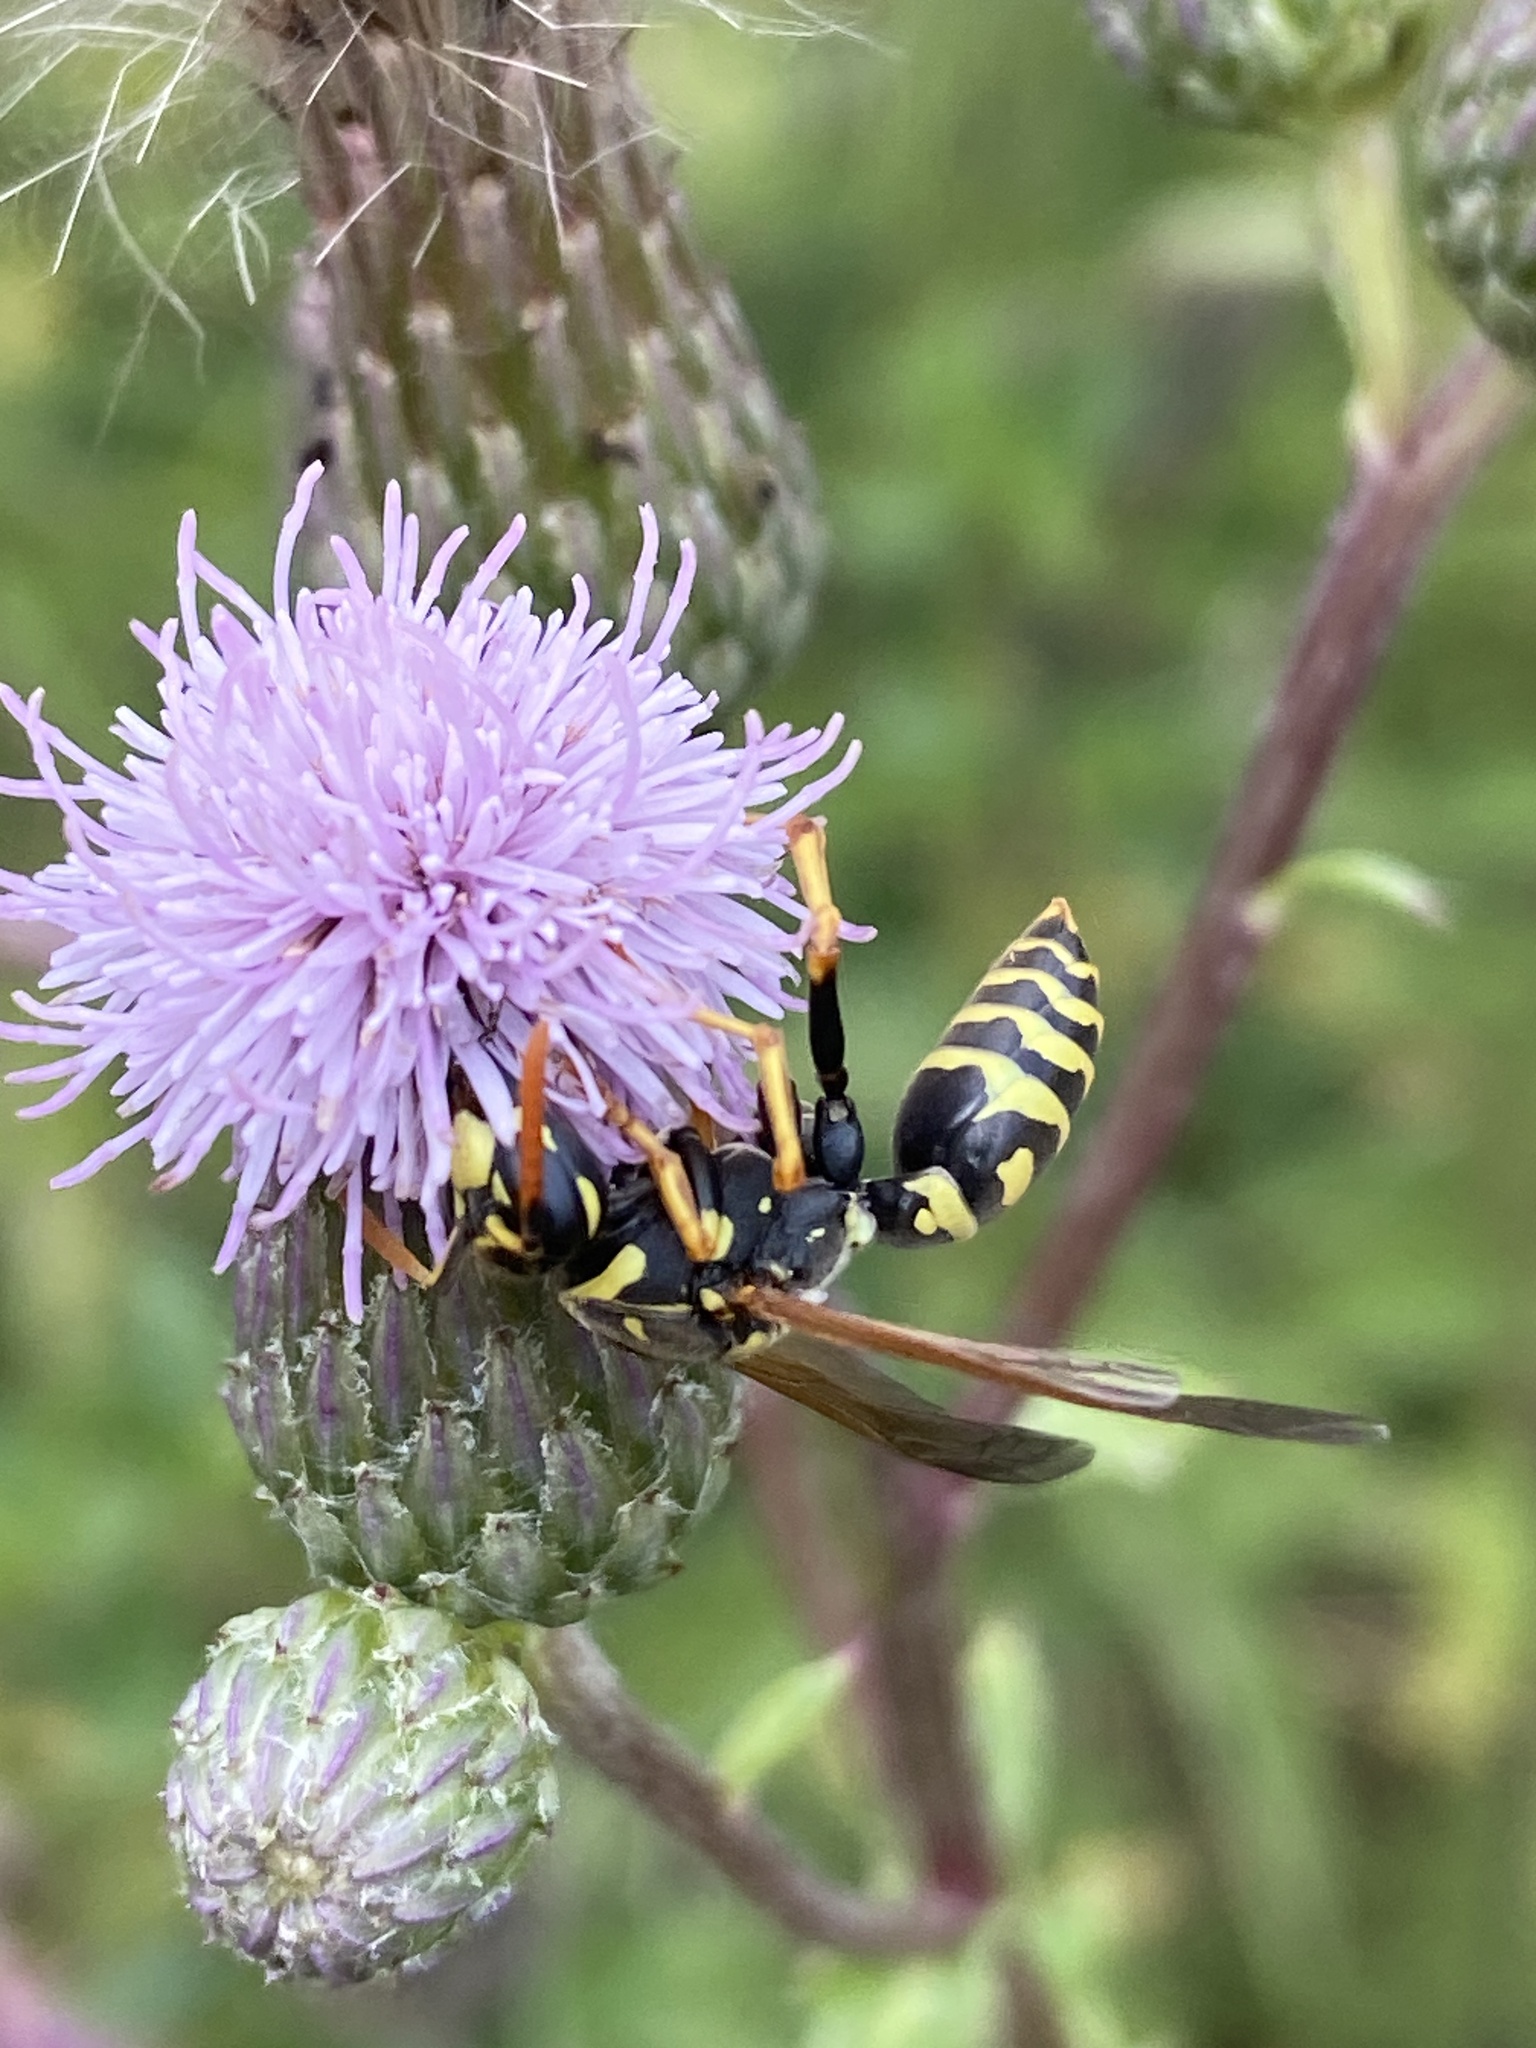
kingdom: Animalia
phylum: Arthropoda
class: Insecta
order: Hymenoptera
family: Eumenidae
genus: Polistes
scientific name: Polistes dominula
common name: Paper wasp
